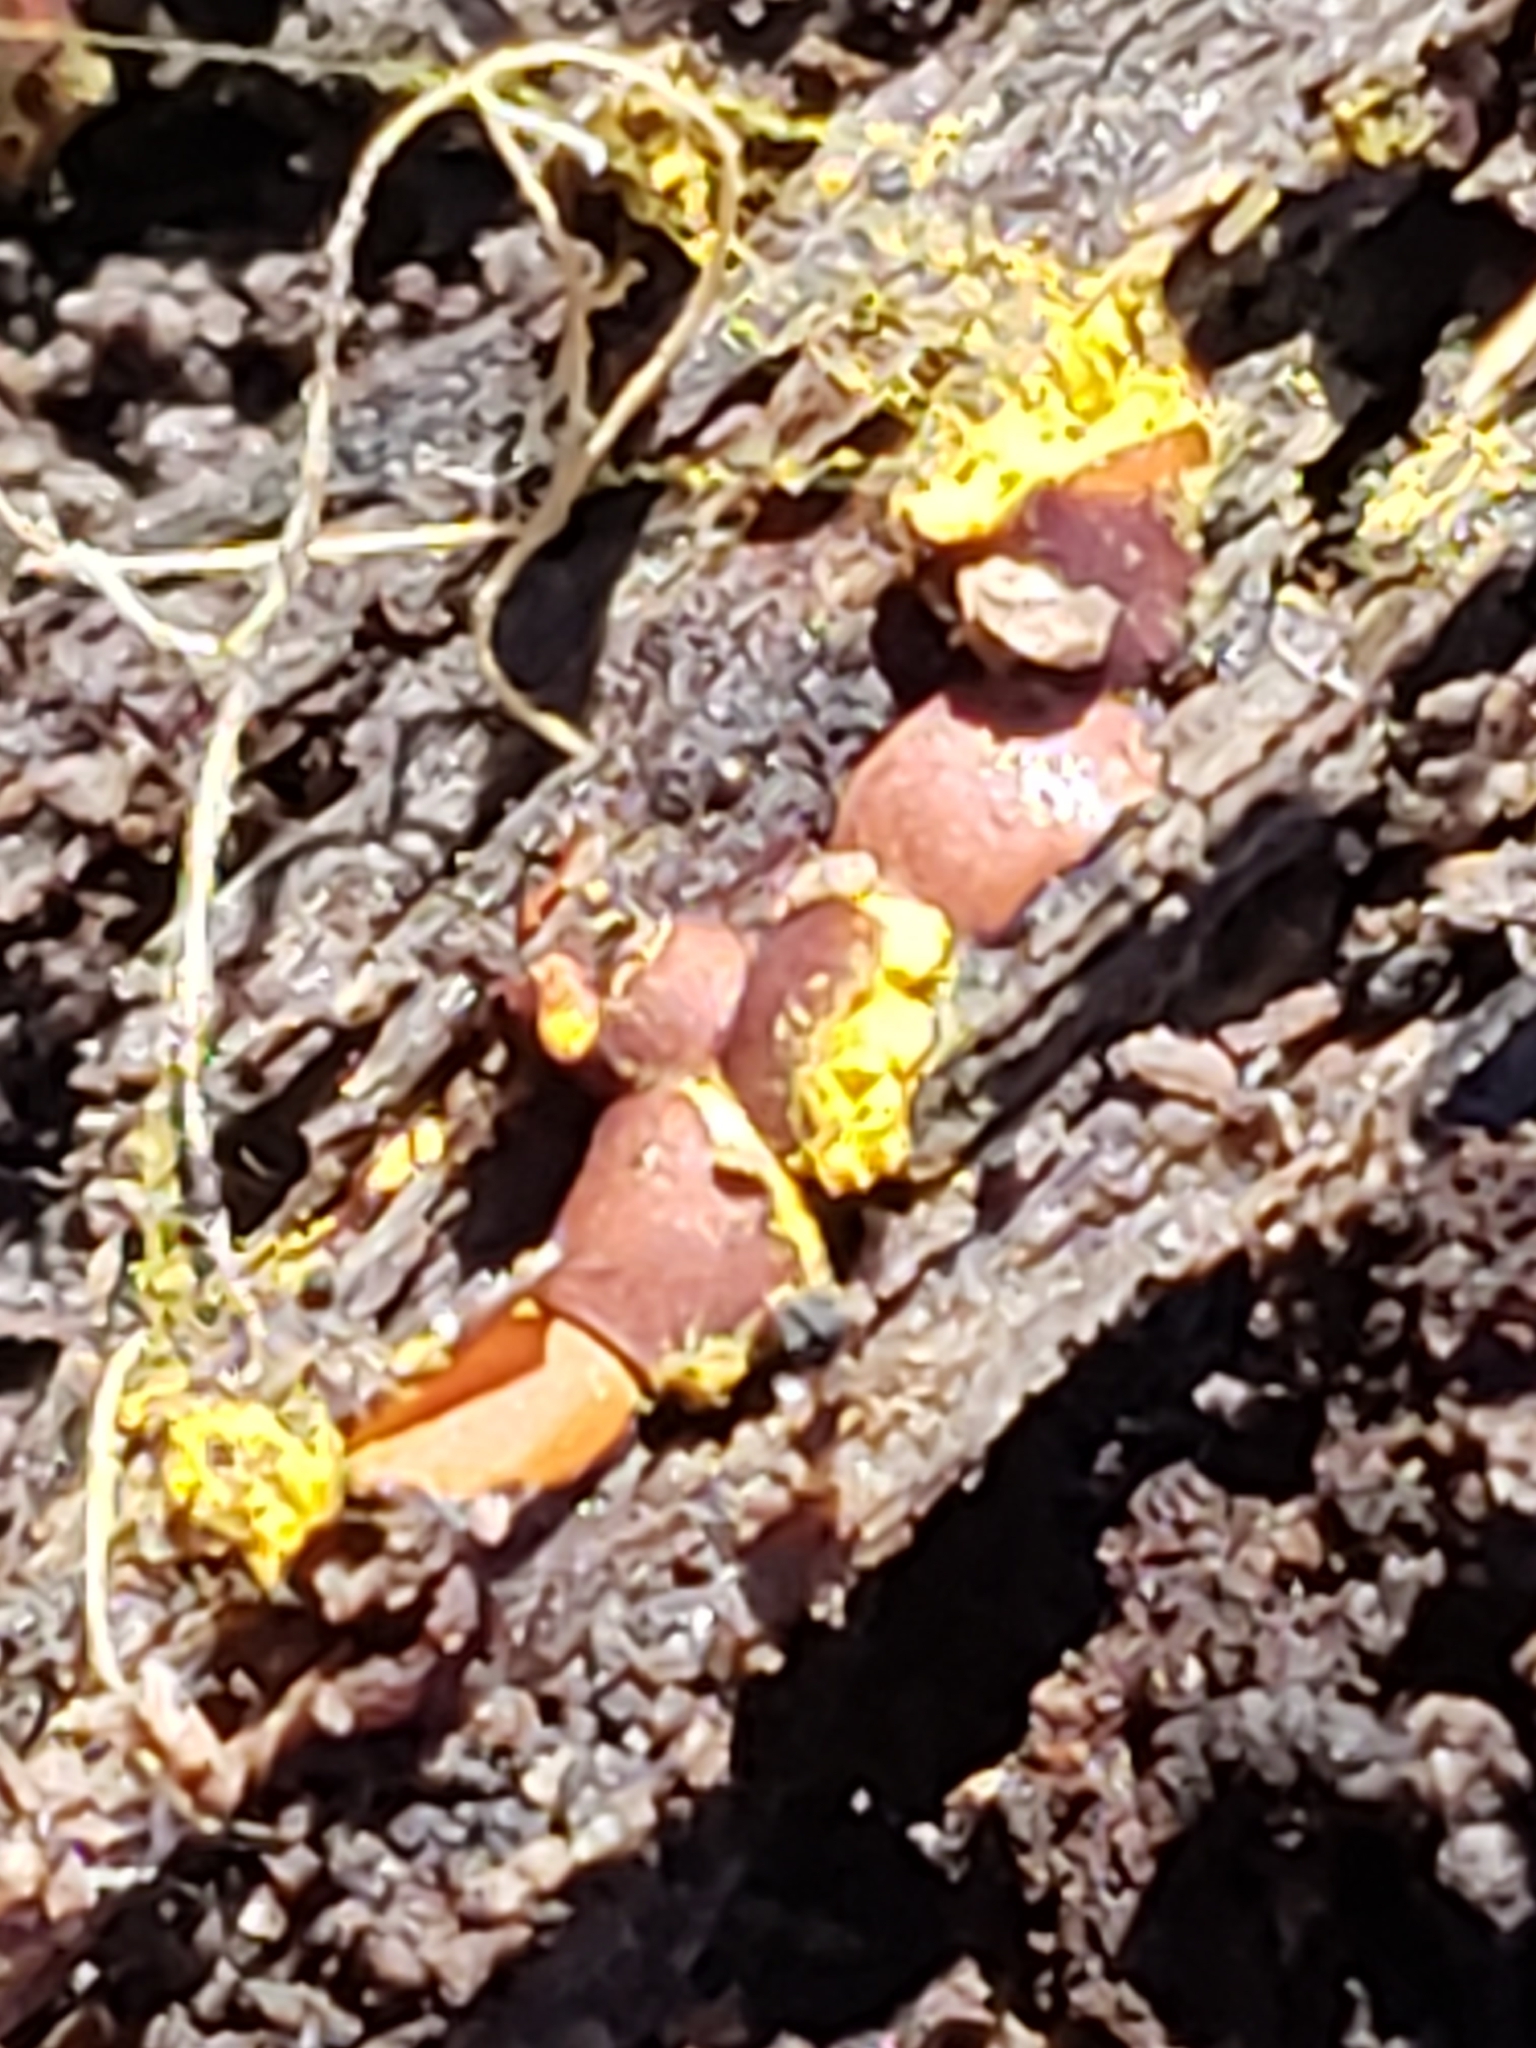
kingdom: Protozoa
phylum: Mycetozoa
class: Myxomycetes
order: Trichiales
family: Trichiaceae
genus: Perichaena
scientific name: Perichaena depressa
